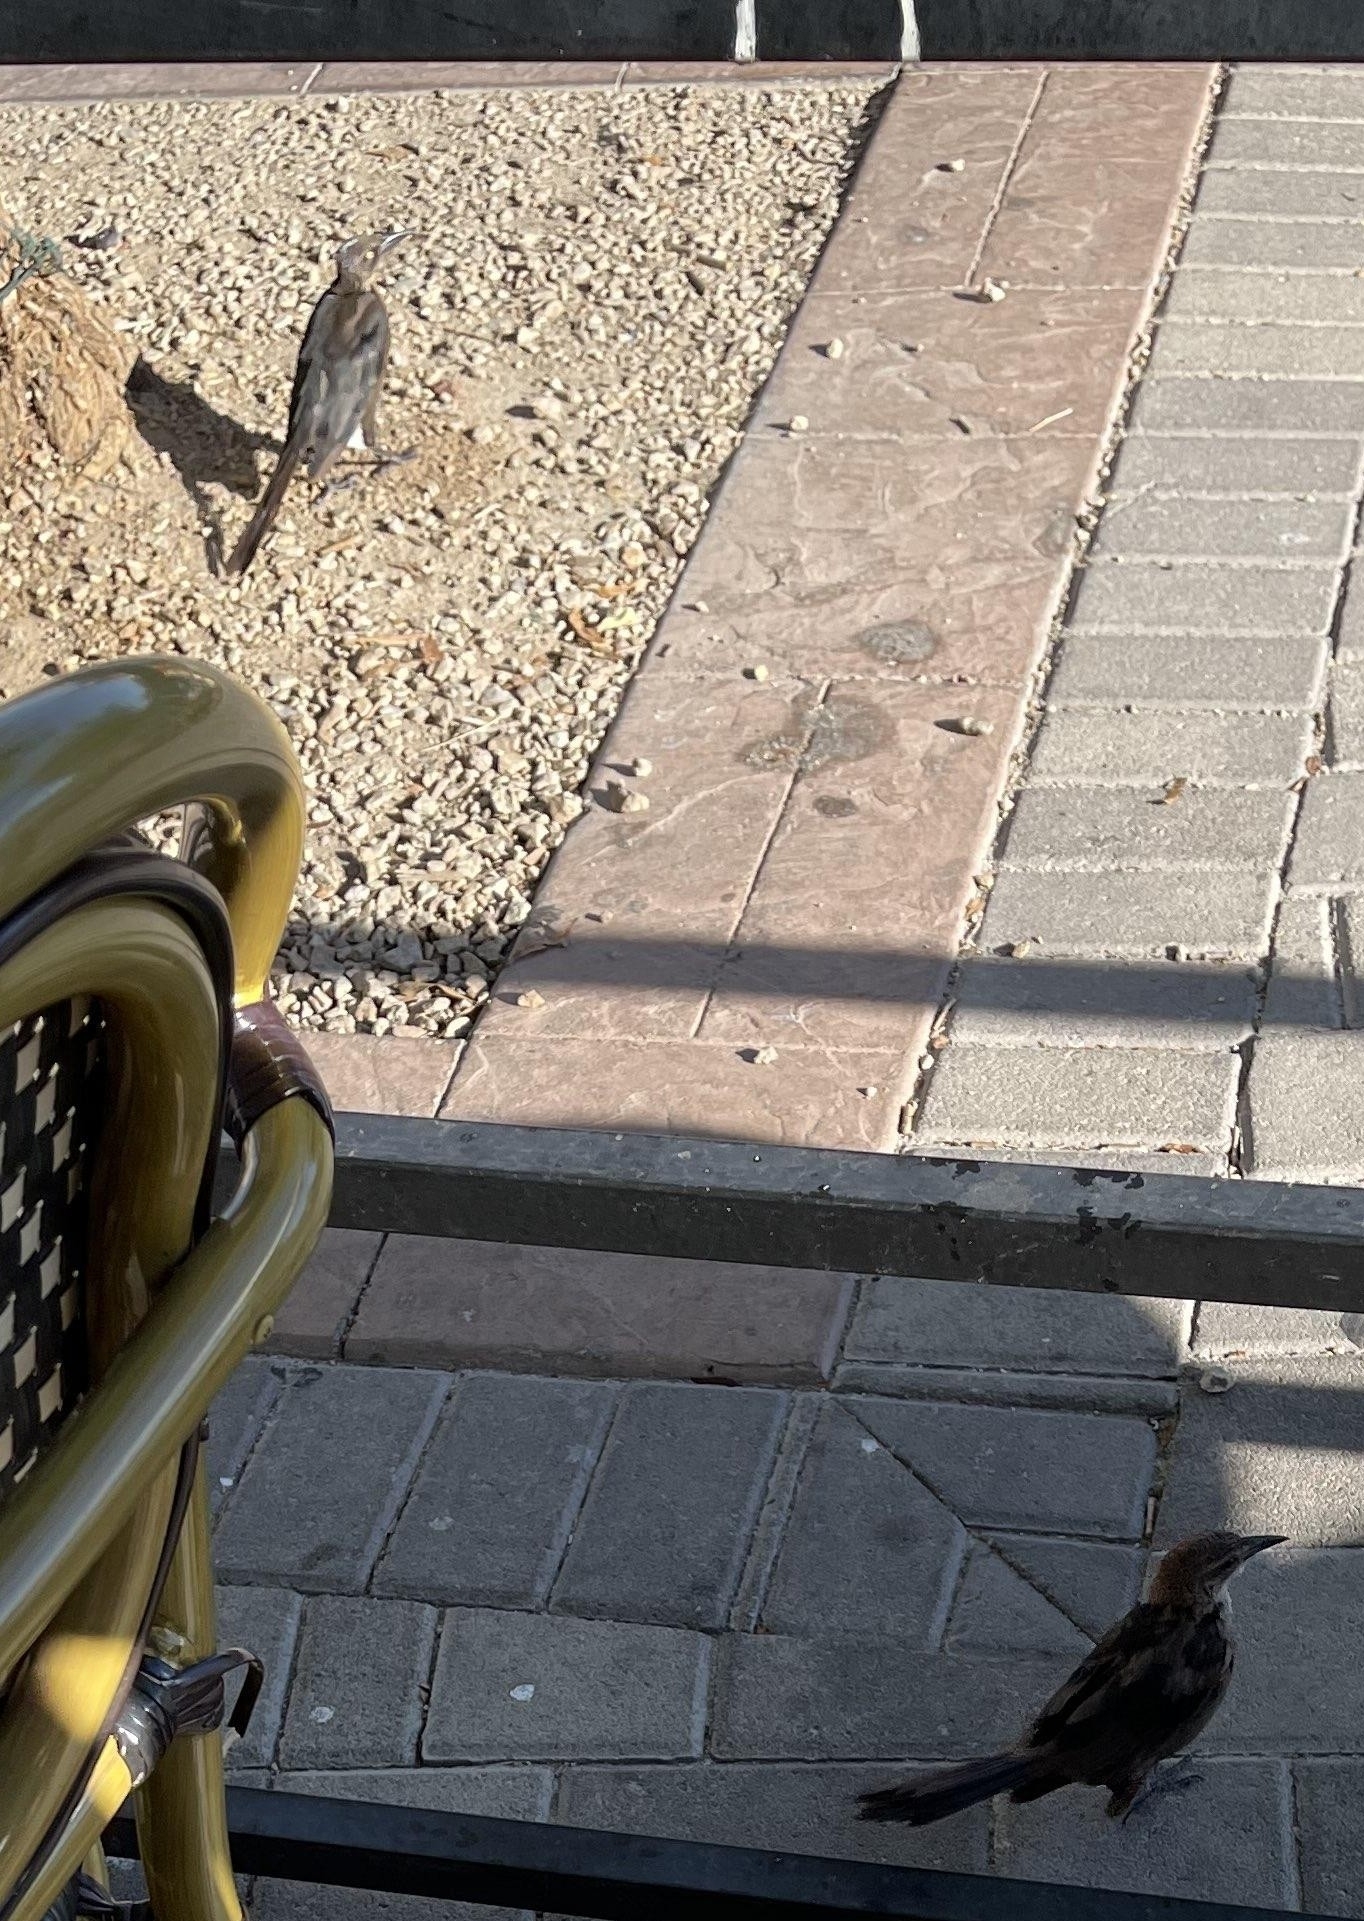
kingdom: Animalia
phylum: Chordata
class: Aves
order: Passeriformes
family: Icteridae
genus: Quiscalus
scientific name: Quiscalus mexicanus
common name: Great-tailed grackle
